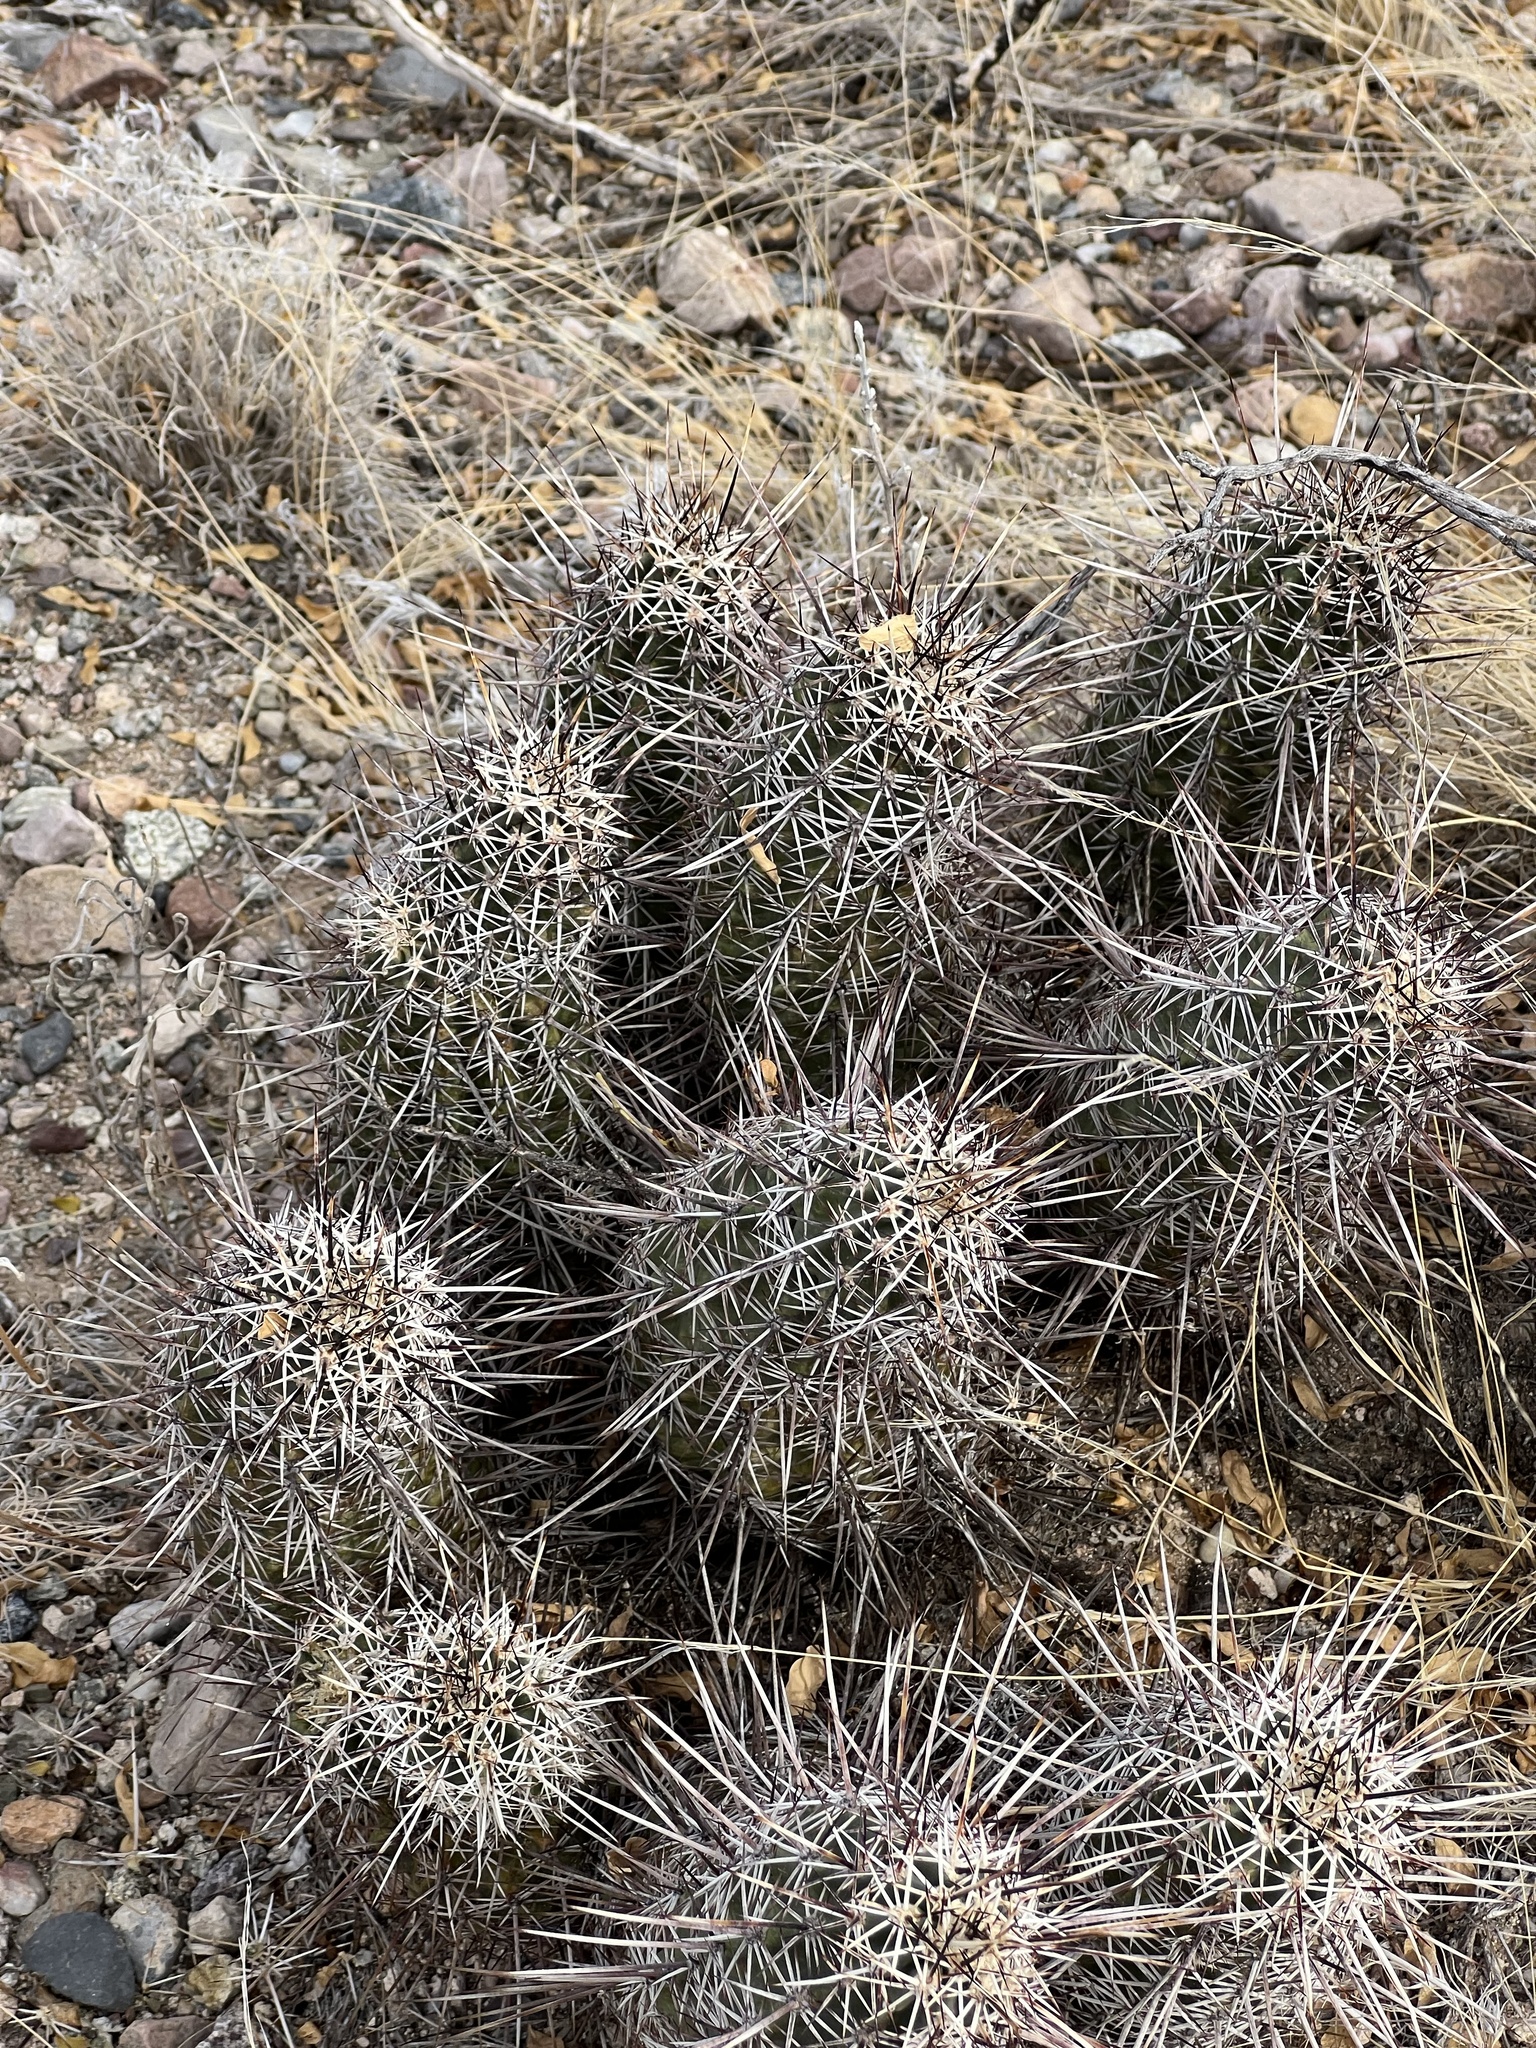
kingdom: Plantae
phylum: Tracheophyta
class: Magnoliopsida
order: Caryophyllales
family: Cactaceae
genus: Echinocereus
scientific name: Echinocereus fasciculatus
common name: Bundle hedgehog
